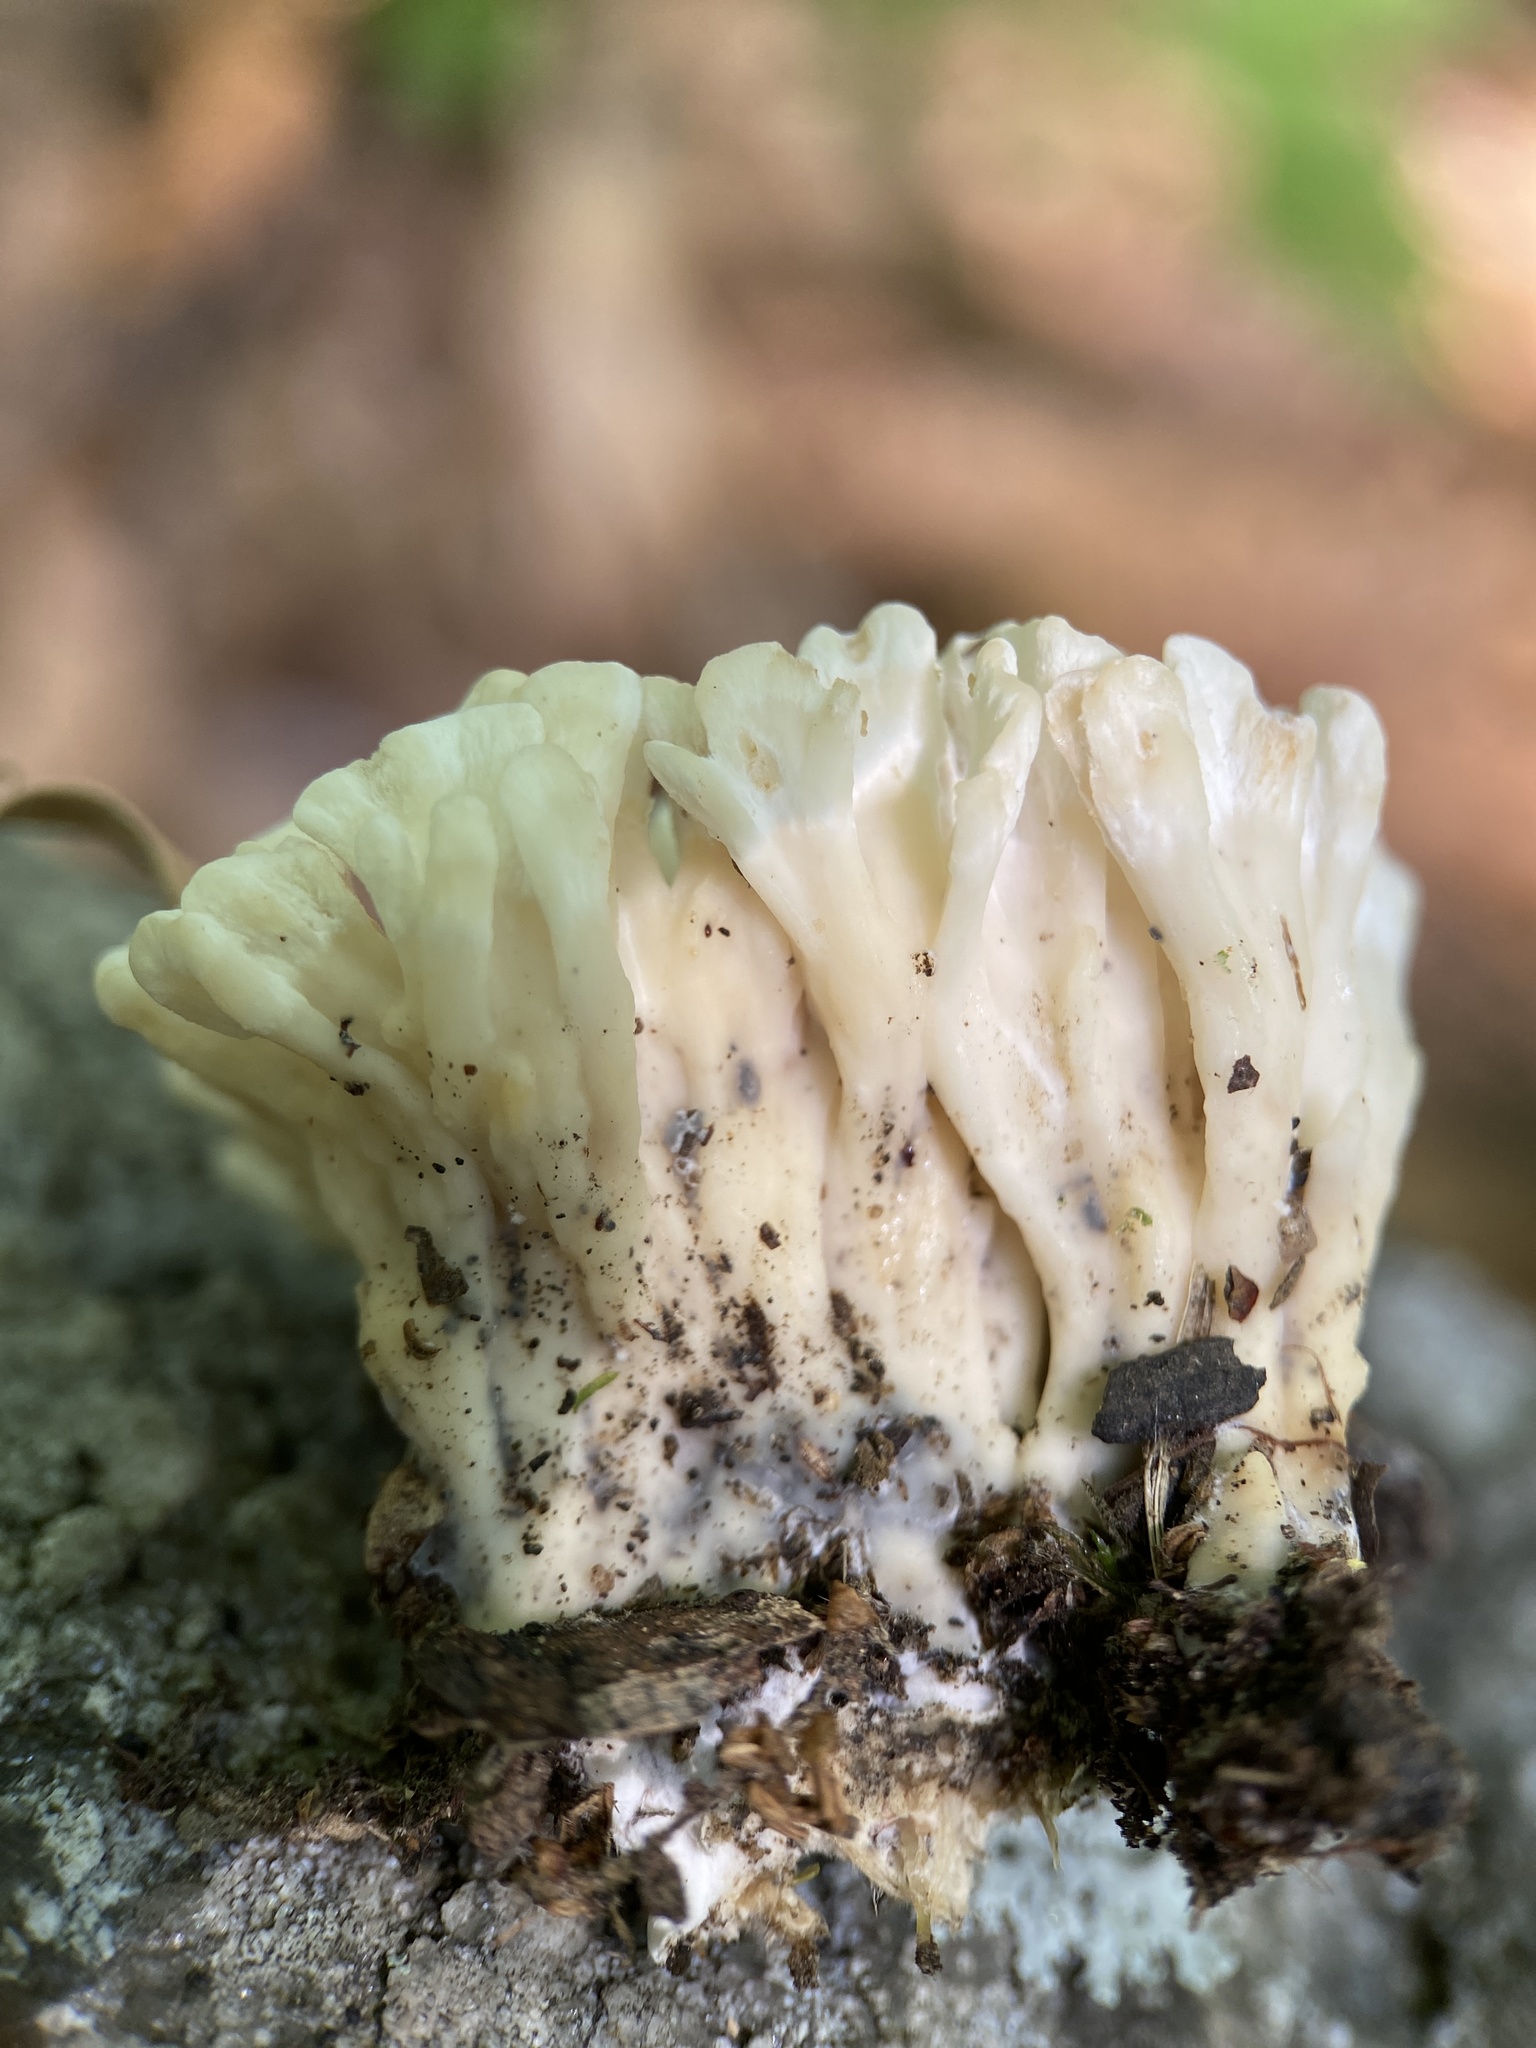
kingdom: Fungi
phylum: Basidiomycota
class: Agaricomycetes
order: Sebacinales
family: Sebacinaceae
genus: Sebacina
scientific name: Sebacina schweinitzii
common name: Jellied false coral fungus
